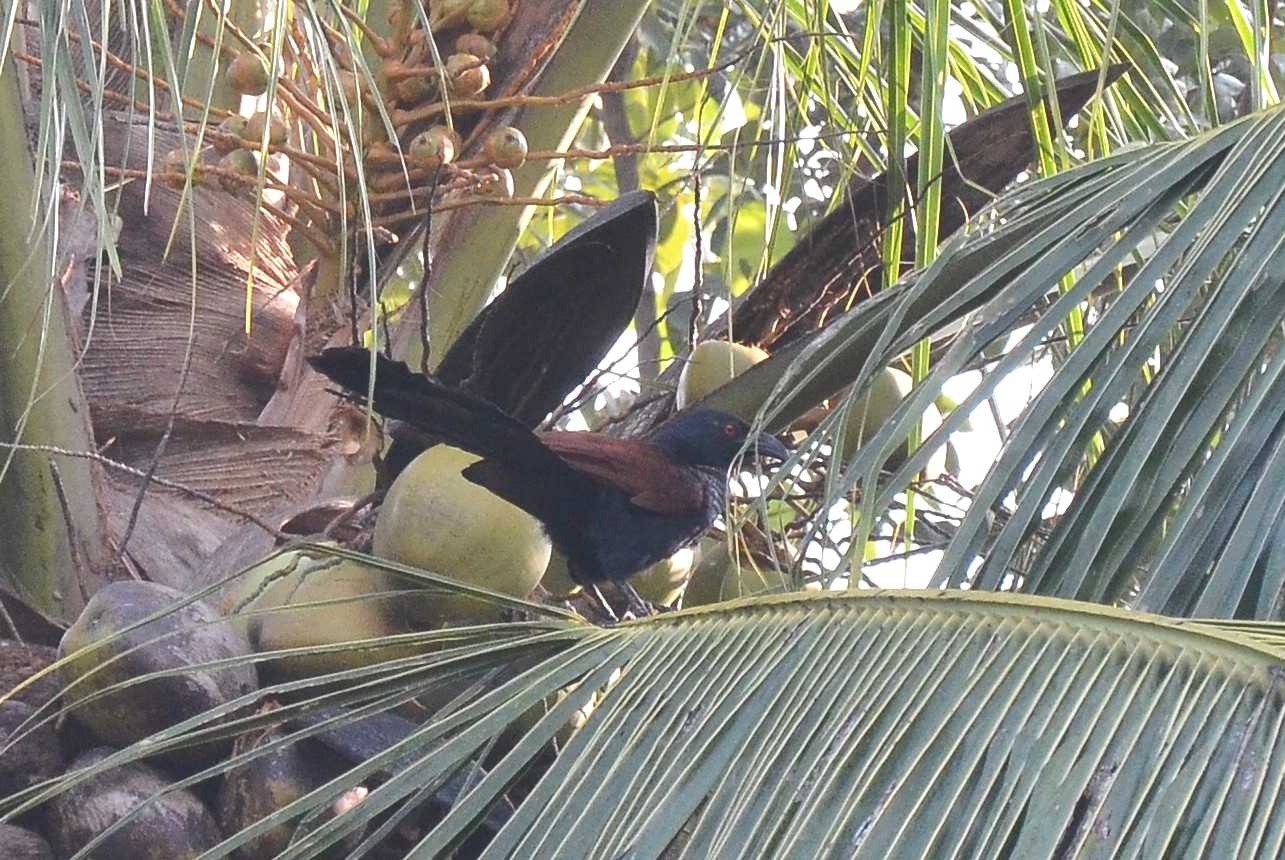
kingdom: Animalia
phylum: Chordata
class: Aves
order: Cuculiformes
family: Cuculidae
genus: Centropus
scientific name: Centropus sinensis
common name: Greater coucal
